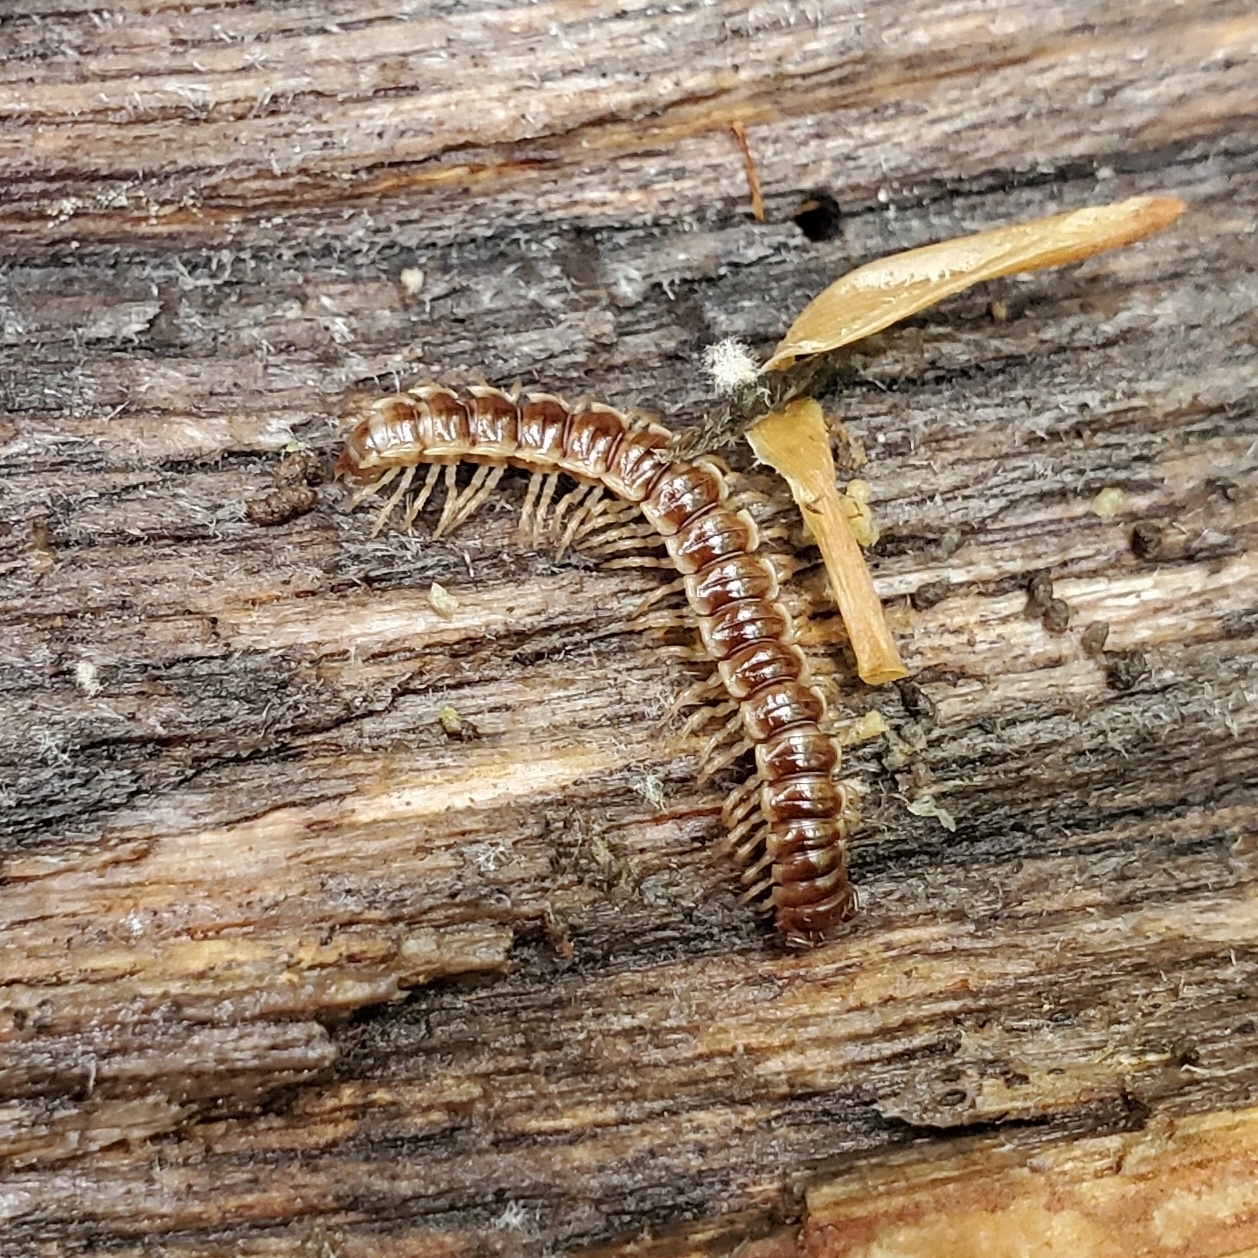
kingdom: Animalia
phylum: Arthropoda
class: Diplopoda
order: Polydesmida
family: Paradoxosomatidae
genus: Oxidus
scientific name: Oxidus gracilis
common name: Greenhouse millipede
